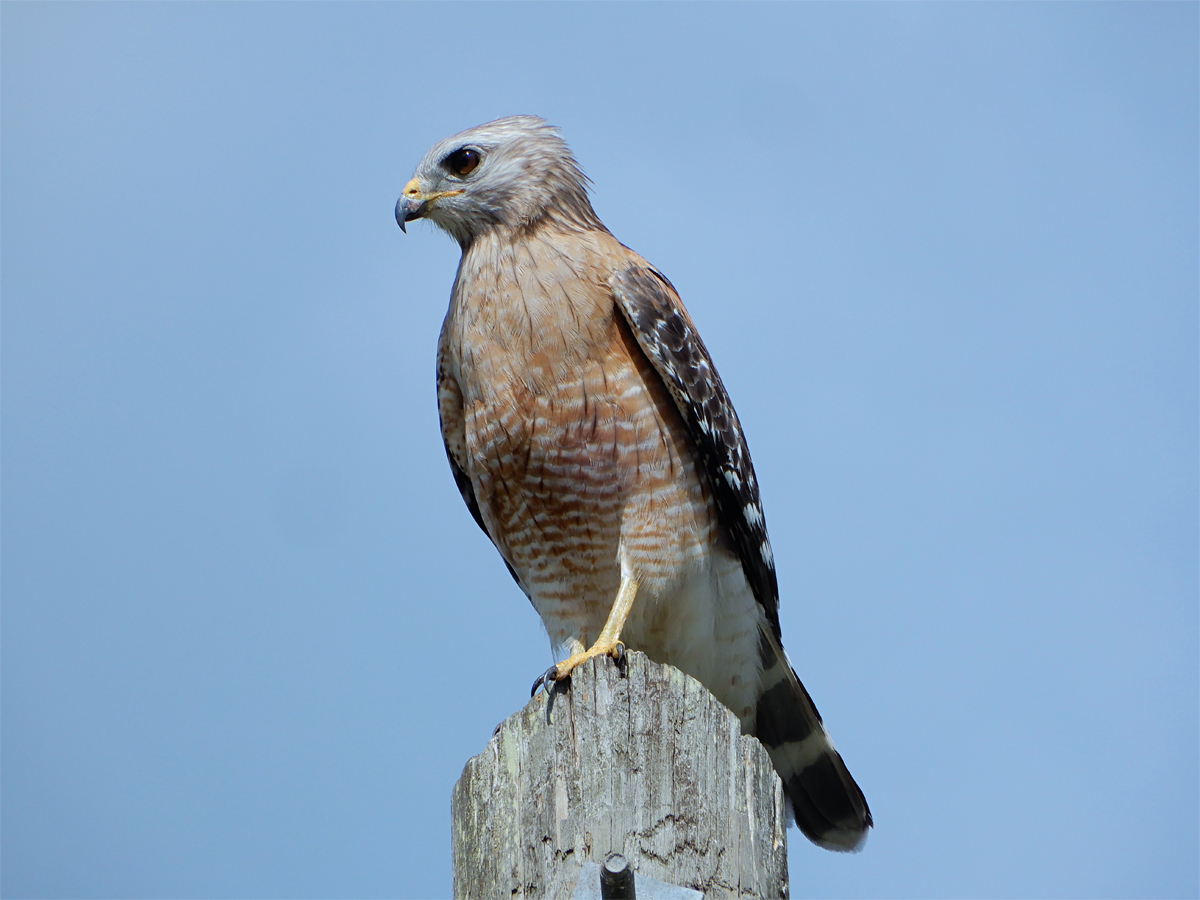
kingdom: Animalia
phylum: Chordata
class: Aves
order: Accipitriformes
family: Accipitridae
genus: Buteo
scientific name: Buteo lineatus
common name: Red-shouldered hawk
